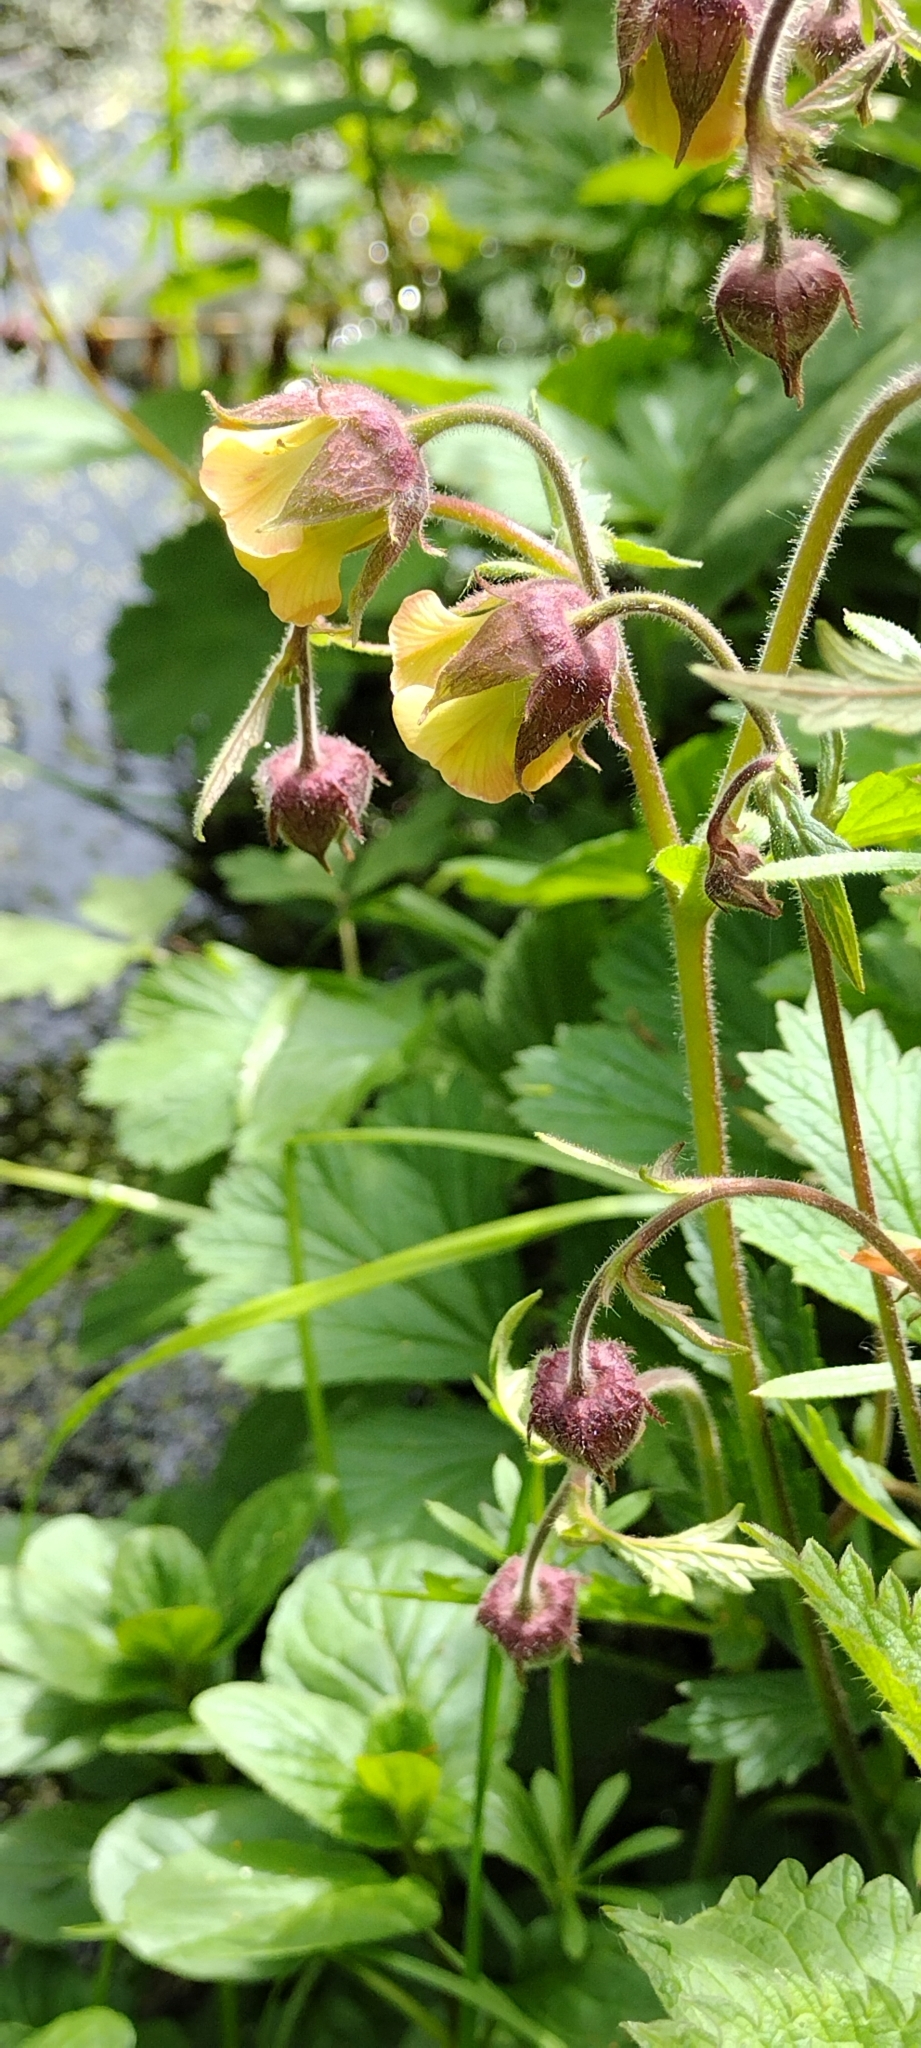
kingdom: Plantae
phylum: Tracheophyta
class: Magnoliopsida
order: Rosales
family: Rosaceae
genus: Geum
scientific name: Geum rivale
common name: Water avens
